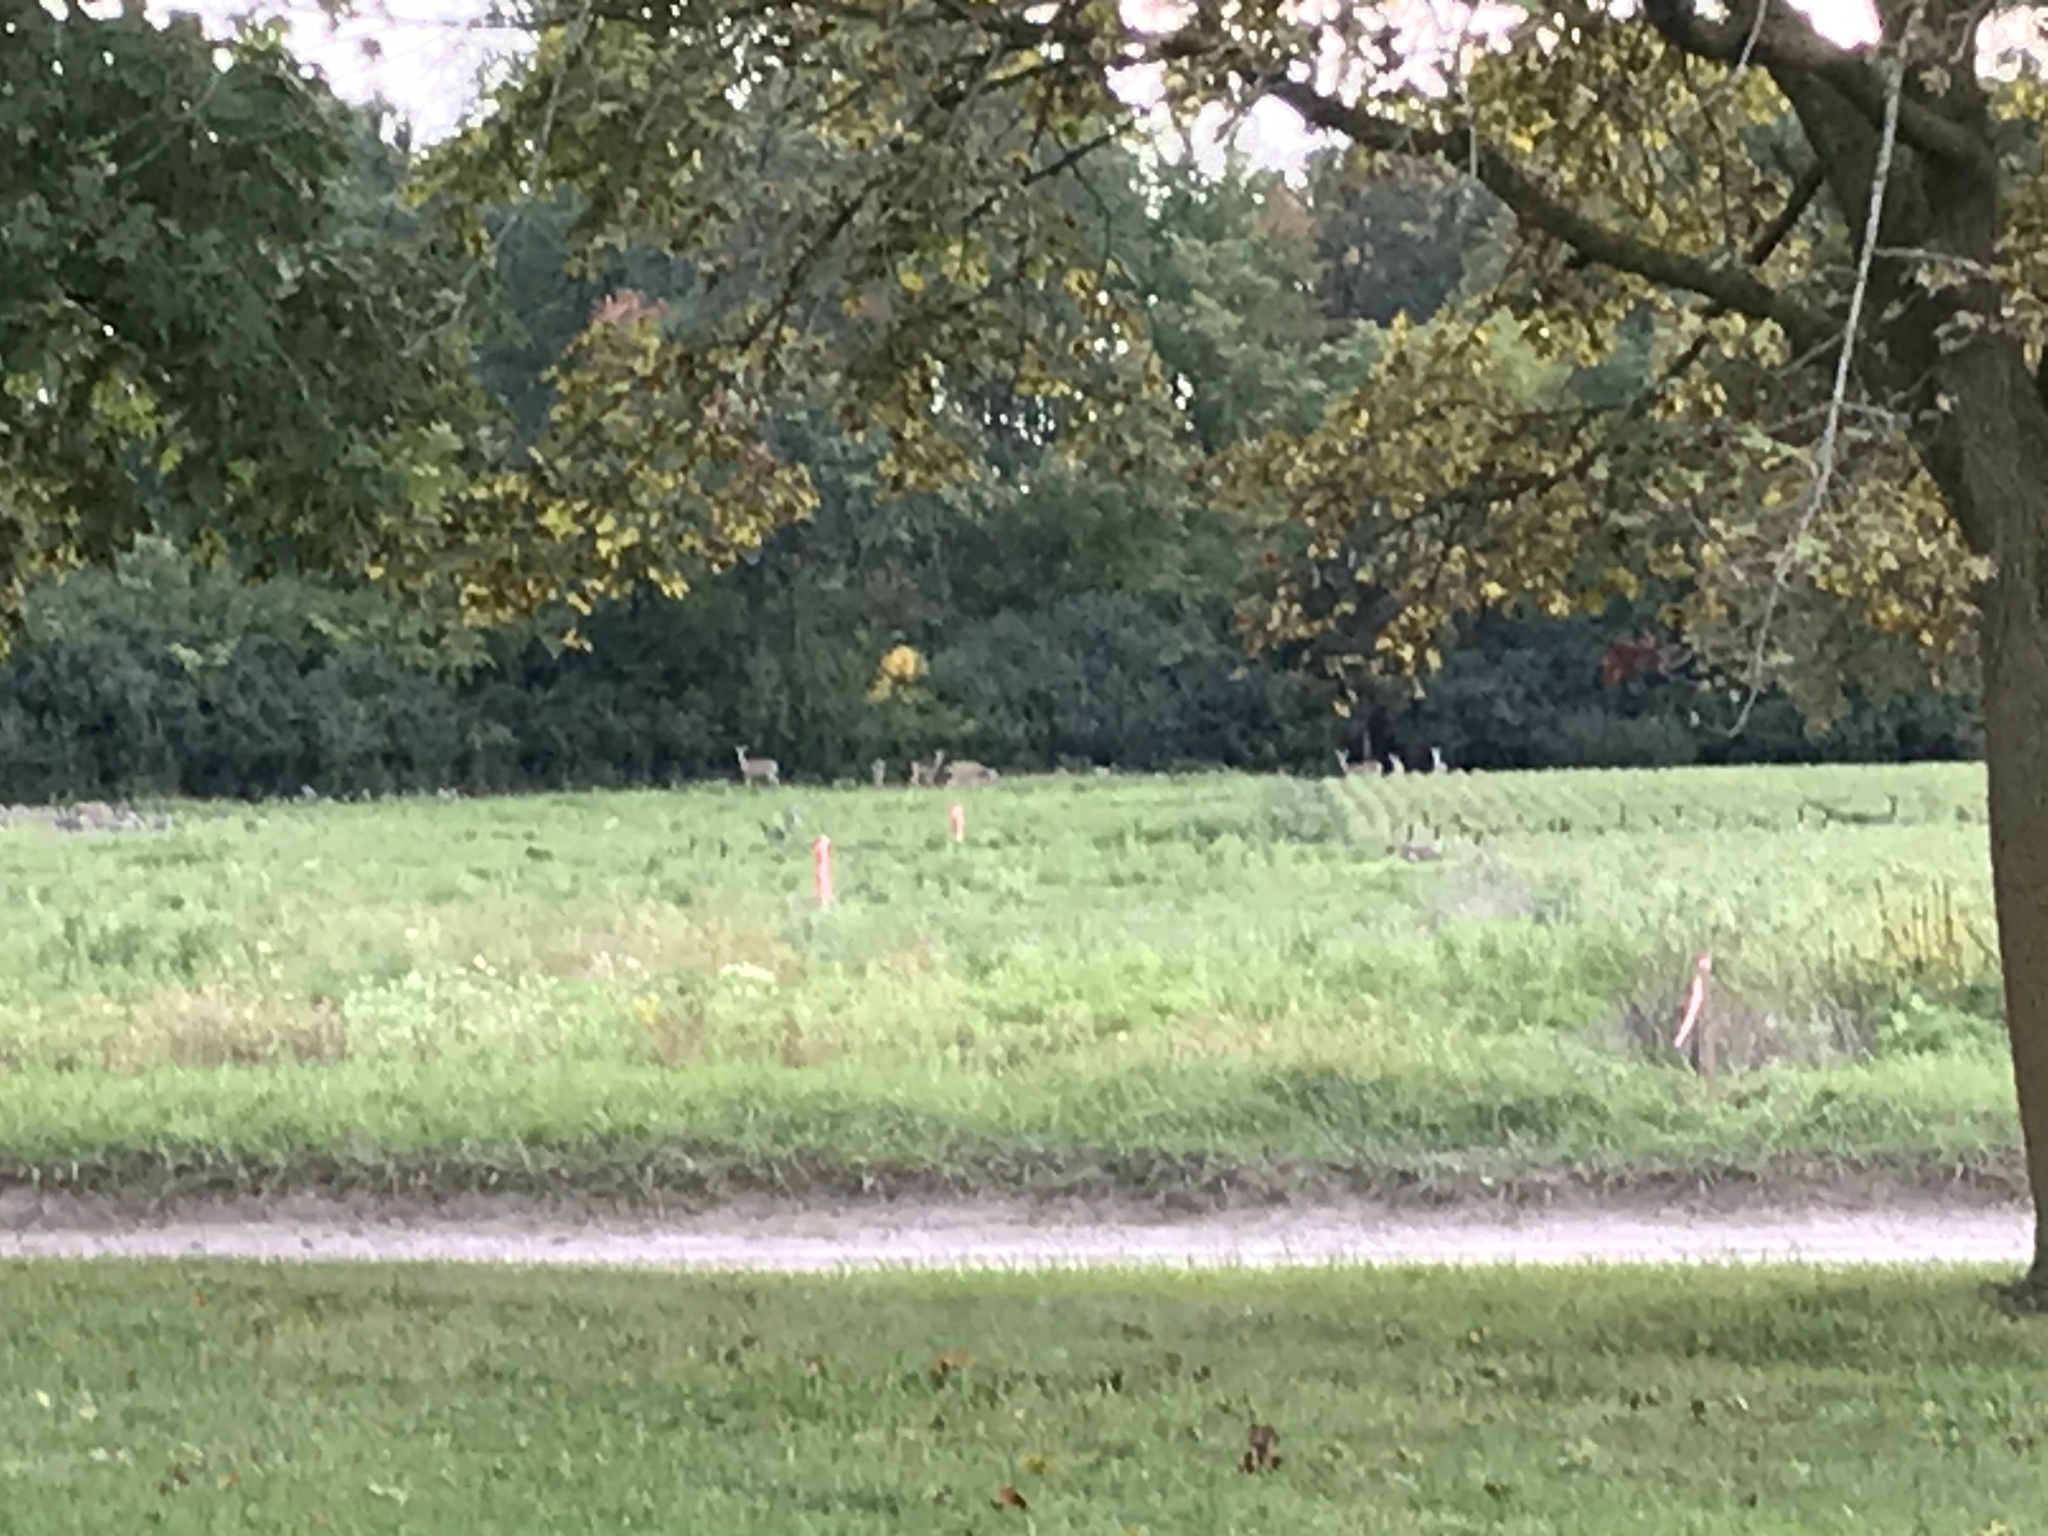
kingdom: Animalia
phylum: Chordata
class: Mammalia
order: Artiodactyla
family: Cervidae
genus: Odocoileus
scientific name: Odocoileus virginianus
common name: White-tailed deer
